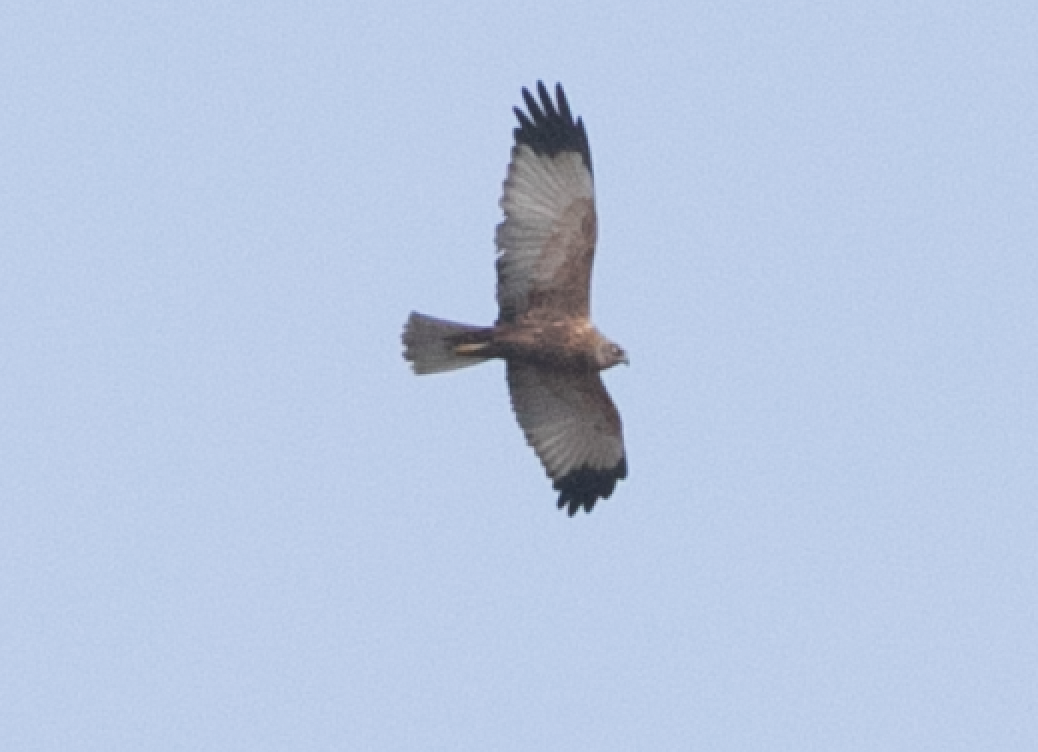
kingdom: Animalia
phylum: Chordata
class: Aves
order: Accipitriformes
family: Accipitridae
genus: Circus
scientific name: Circus aeruginosus
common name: Western marsh harrier
